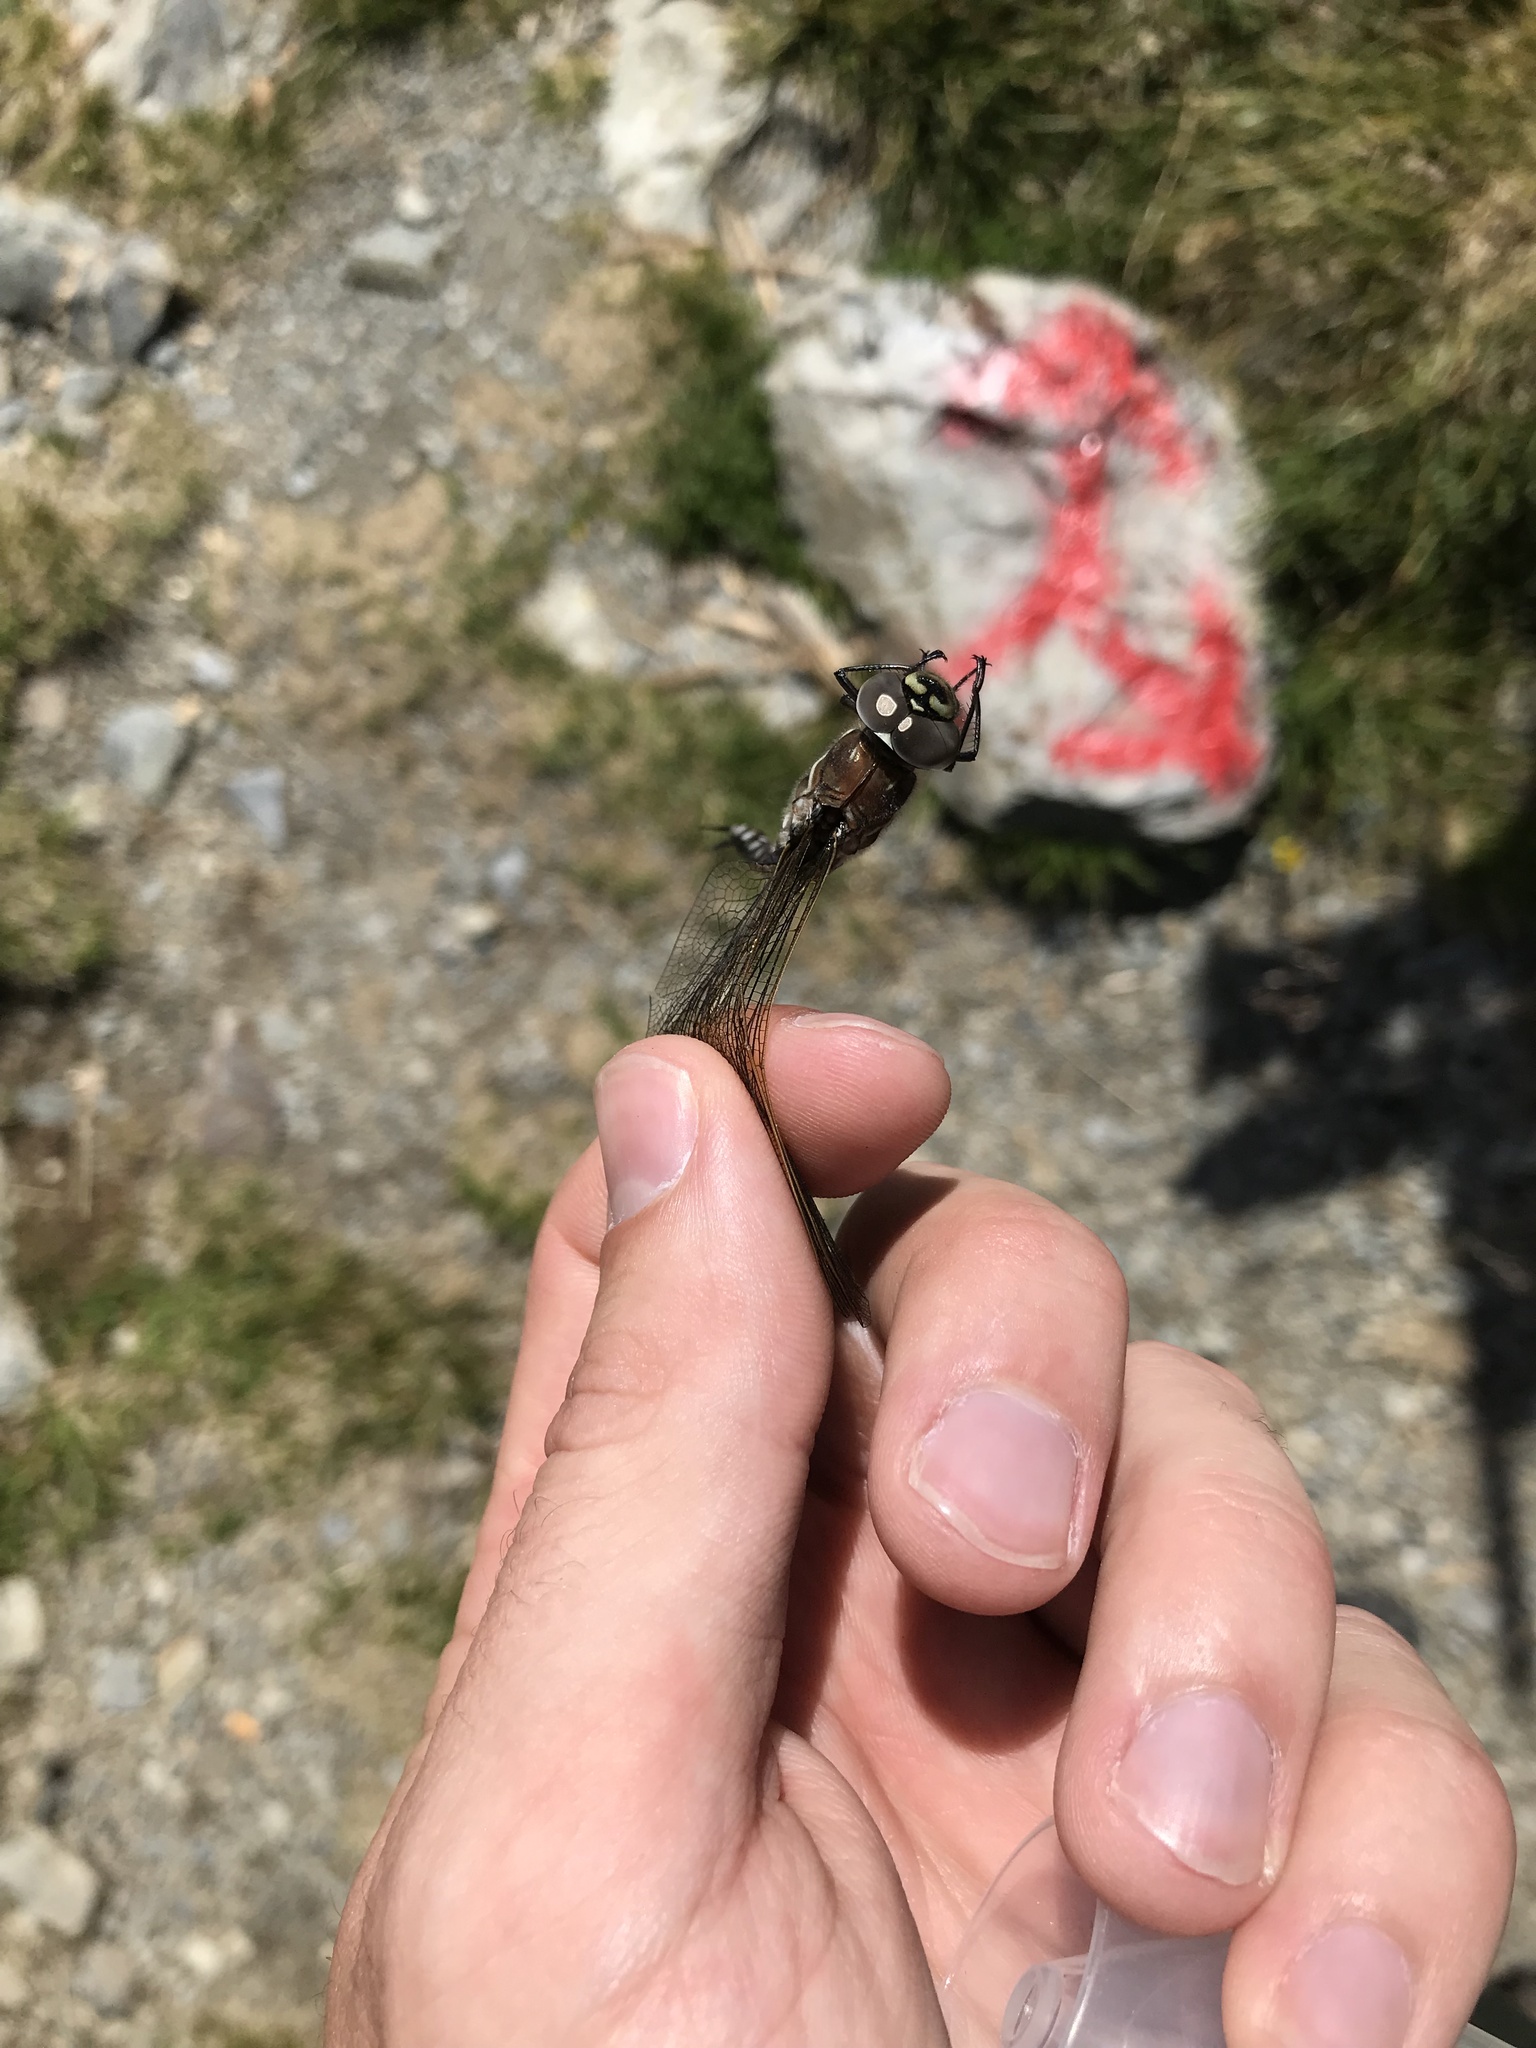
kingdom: Animalia
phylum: Arthropoda
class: Insecta
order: Odonata
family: Aeshnidae
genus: Aeshna
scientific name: Aeshna juncea
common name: Moorland hawker
